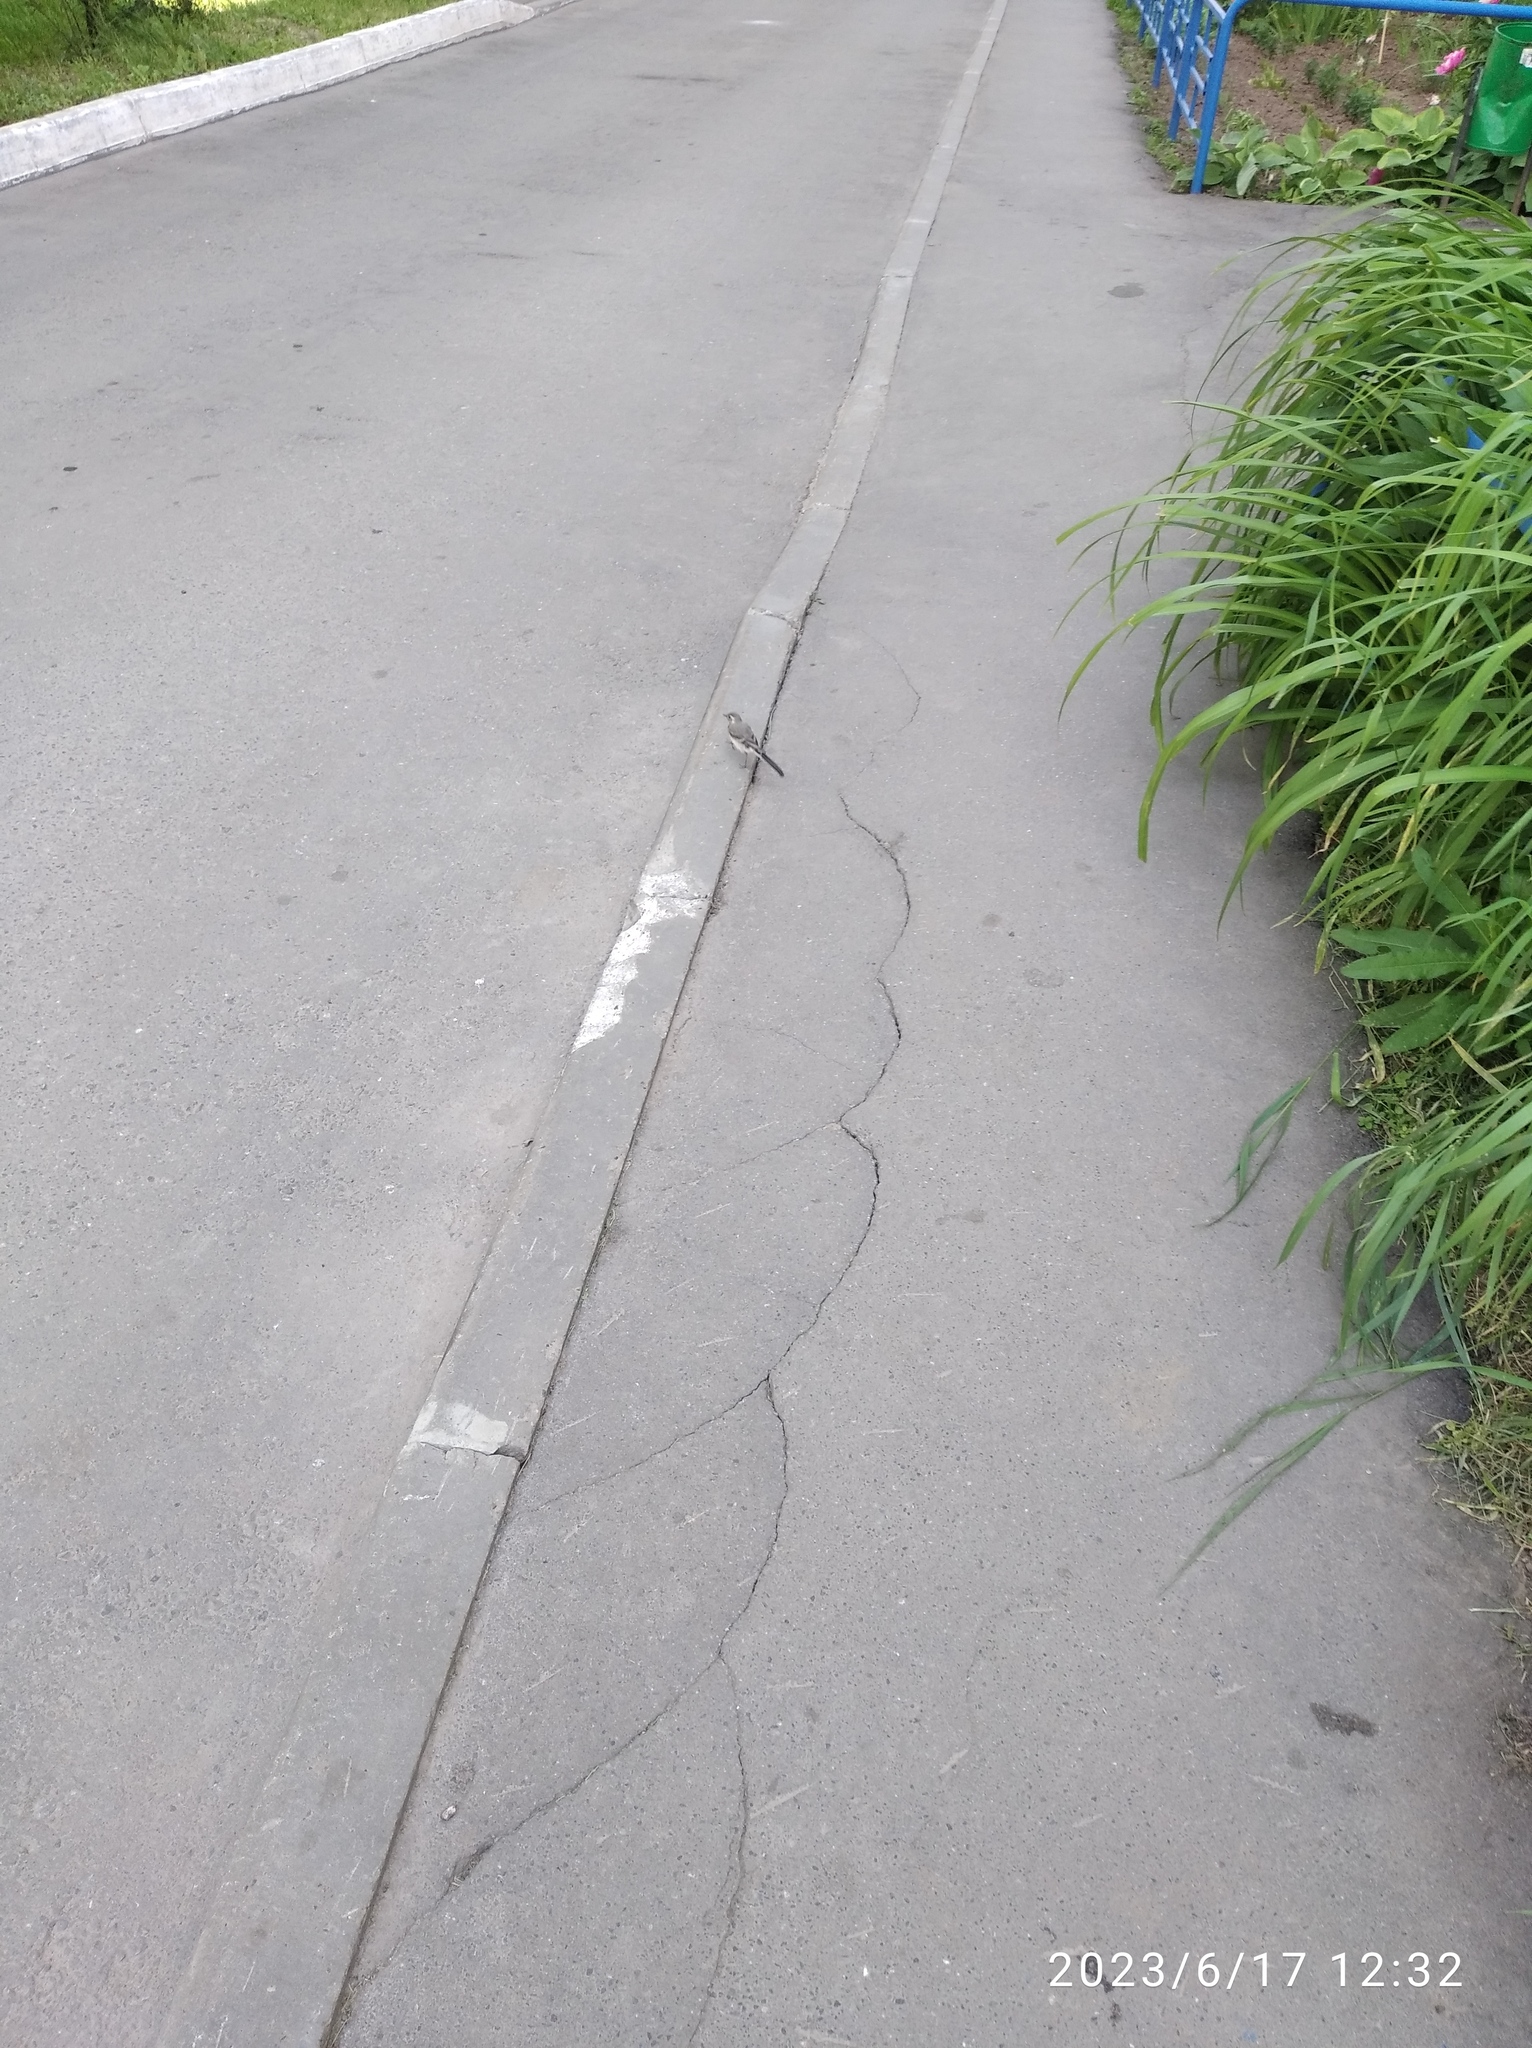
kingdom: Animalia
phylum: Chordata
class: Aves
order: Passeriformes
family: Motacillidae
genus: Motacilla
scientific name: Motacilla alba
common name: White wagtail
